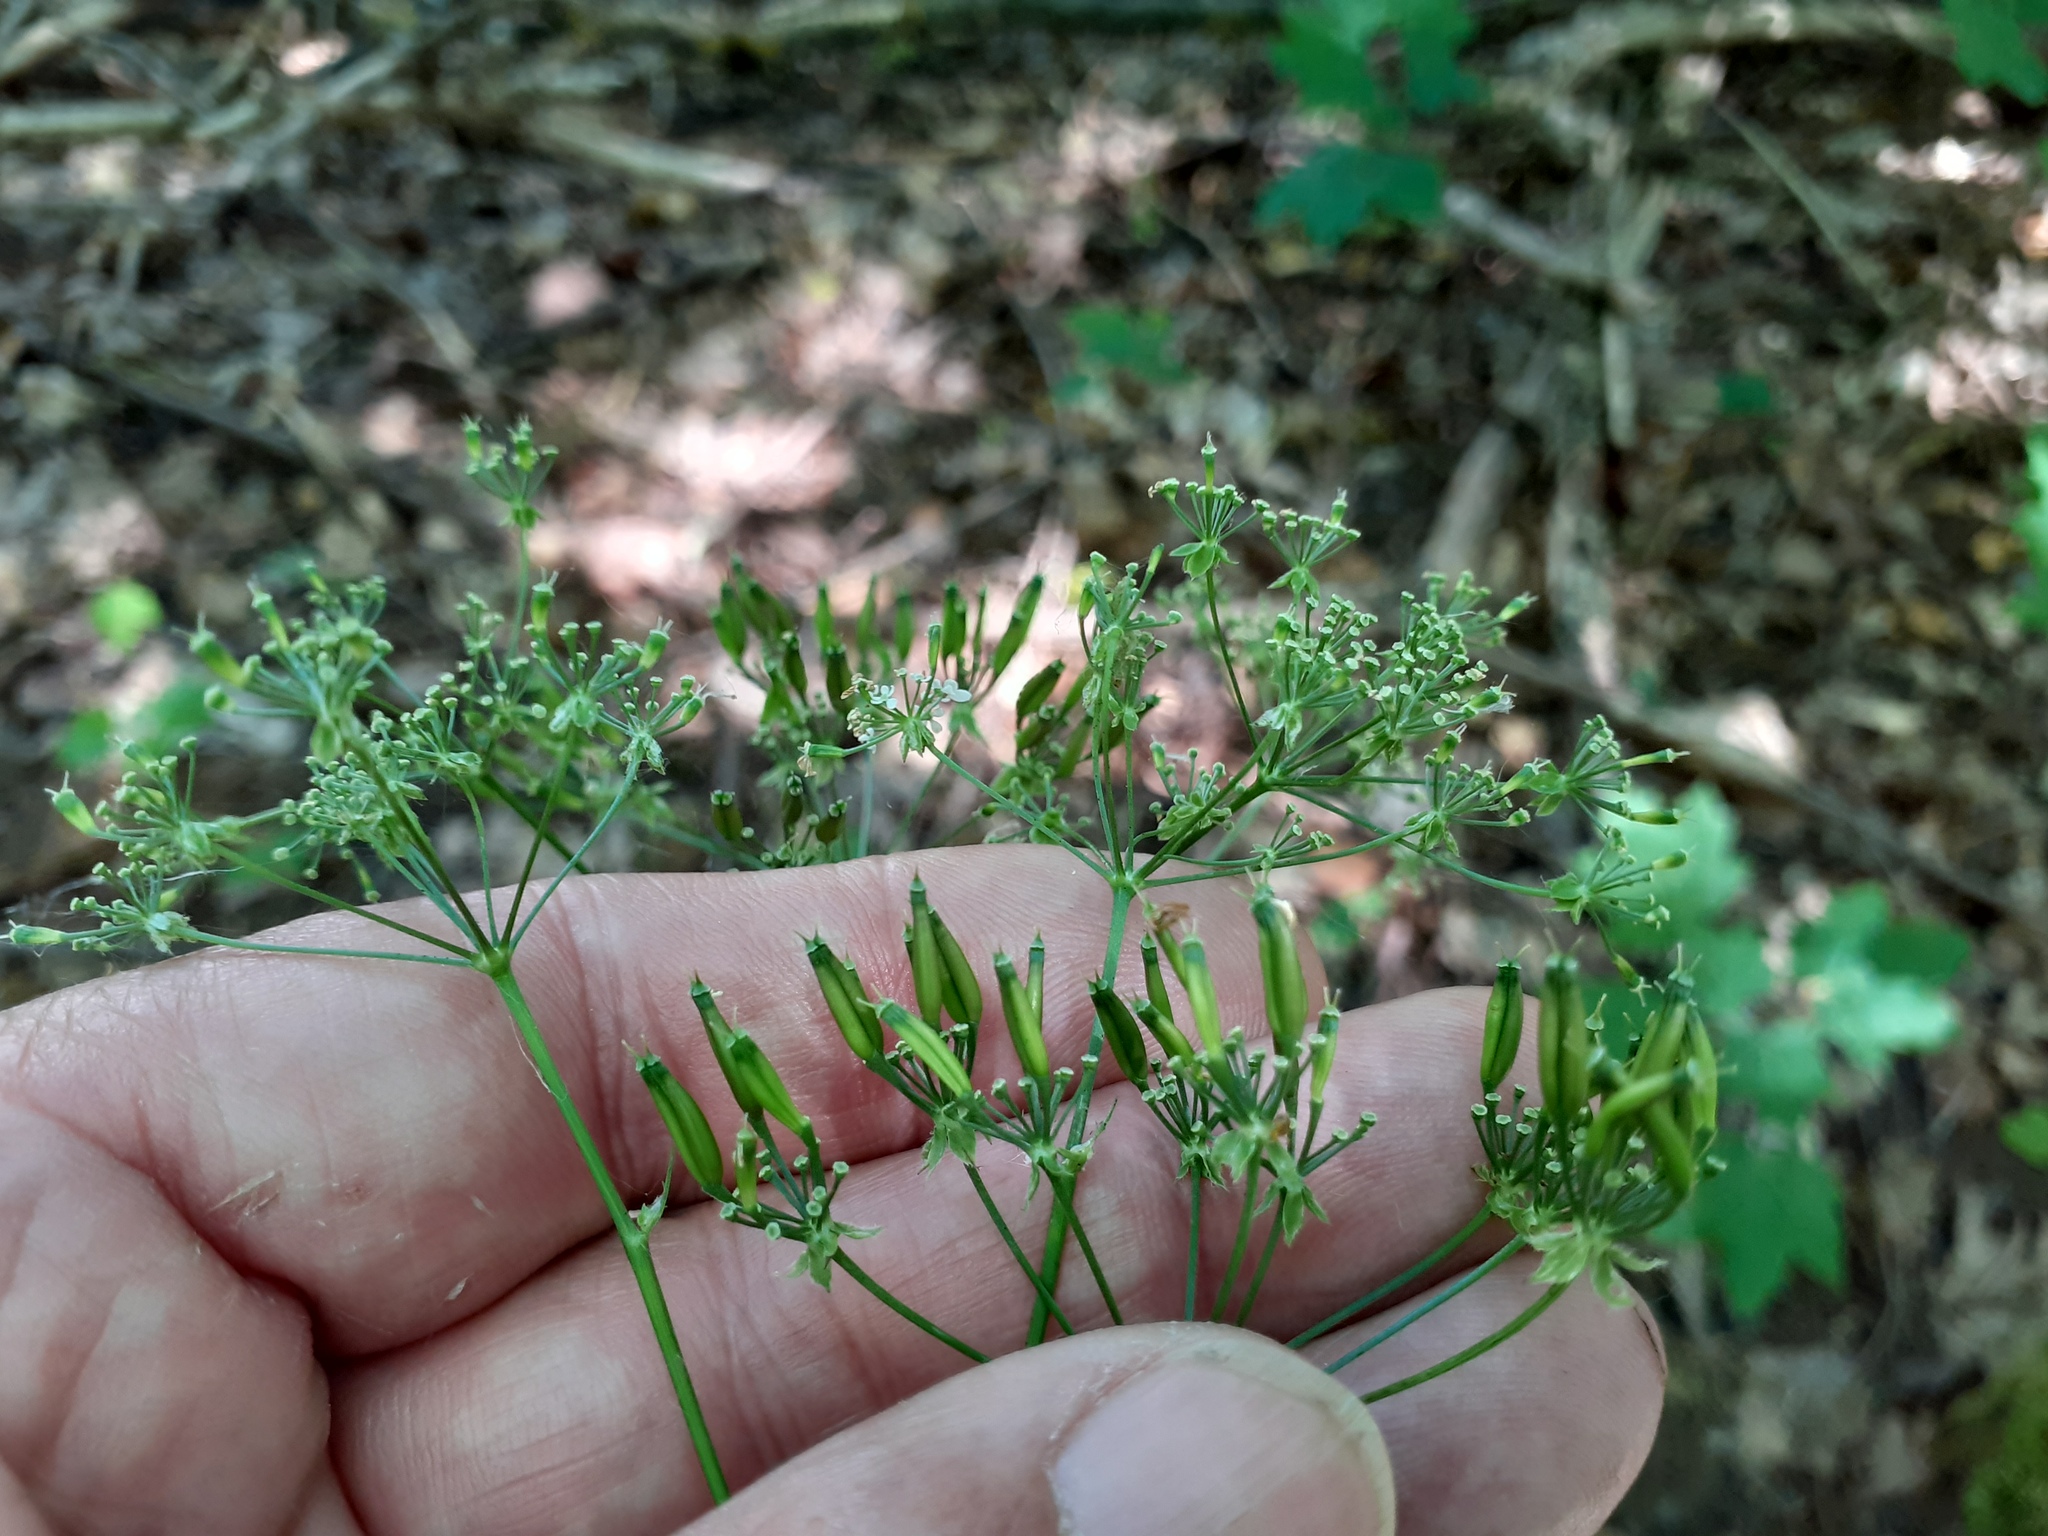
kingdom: Plantae
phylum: Tracheophyta
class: Magnoliopsida
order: Apiales
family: Apiaceae
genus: Anthriscus
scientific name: Anthriscus sylvestris
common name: Cow parsley
